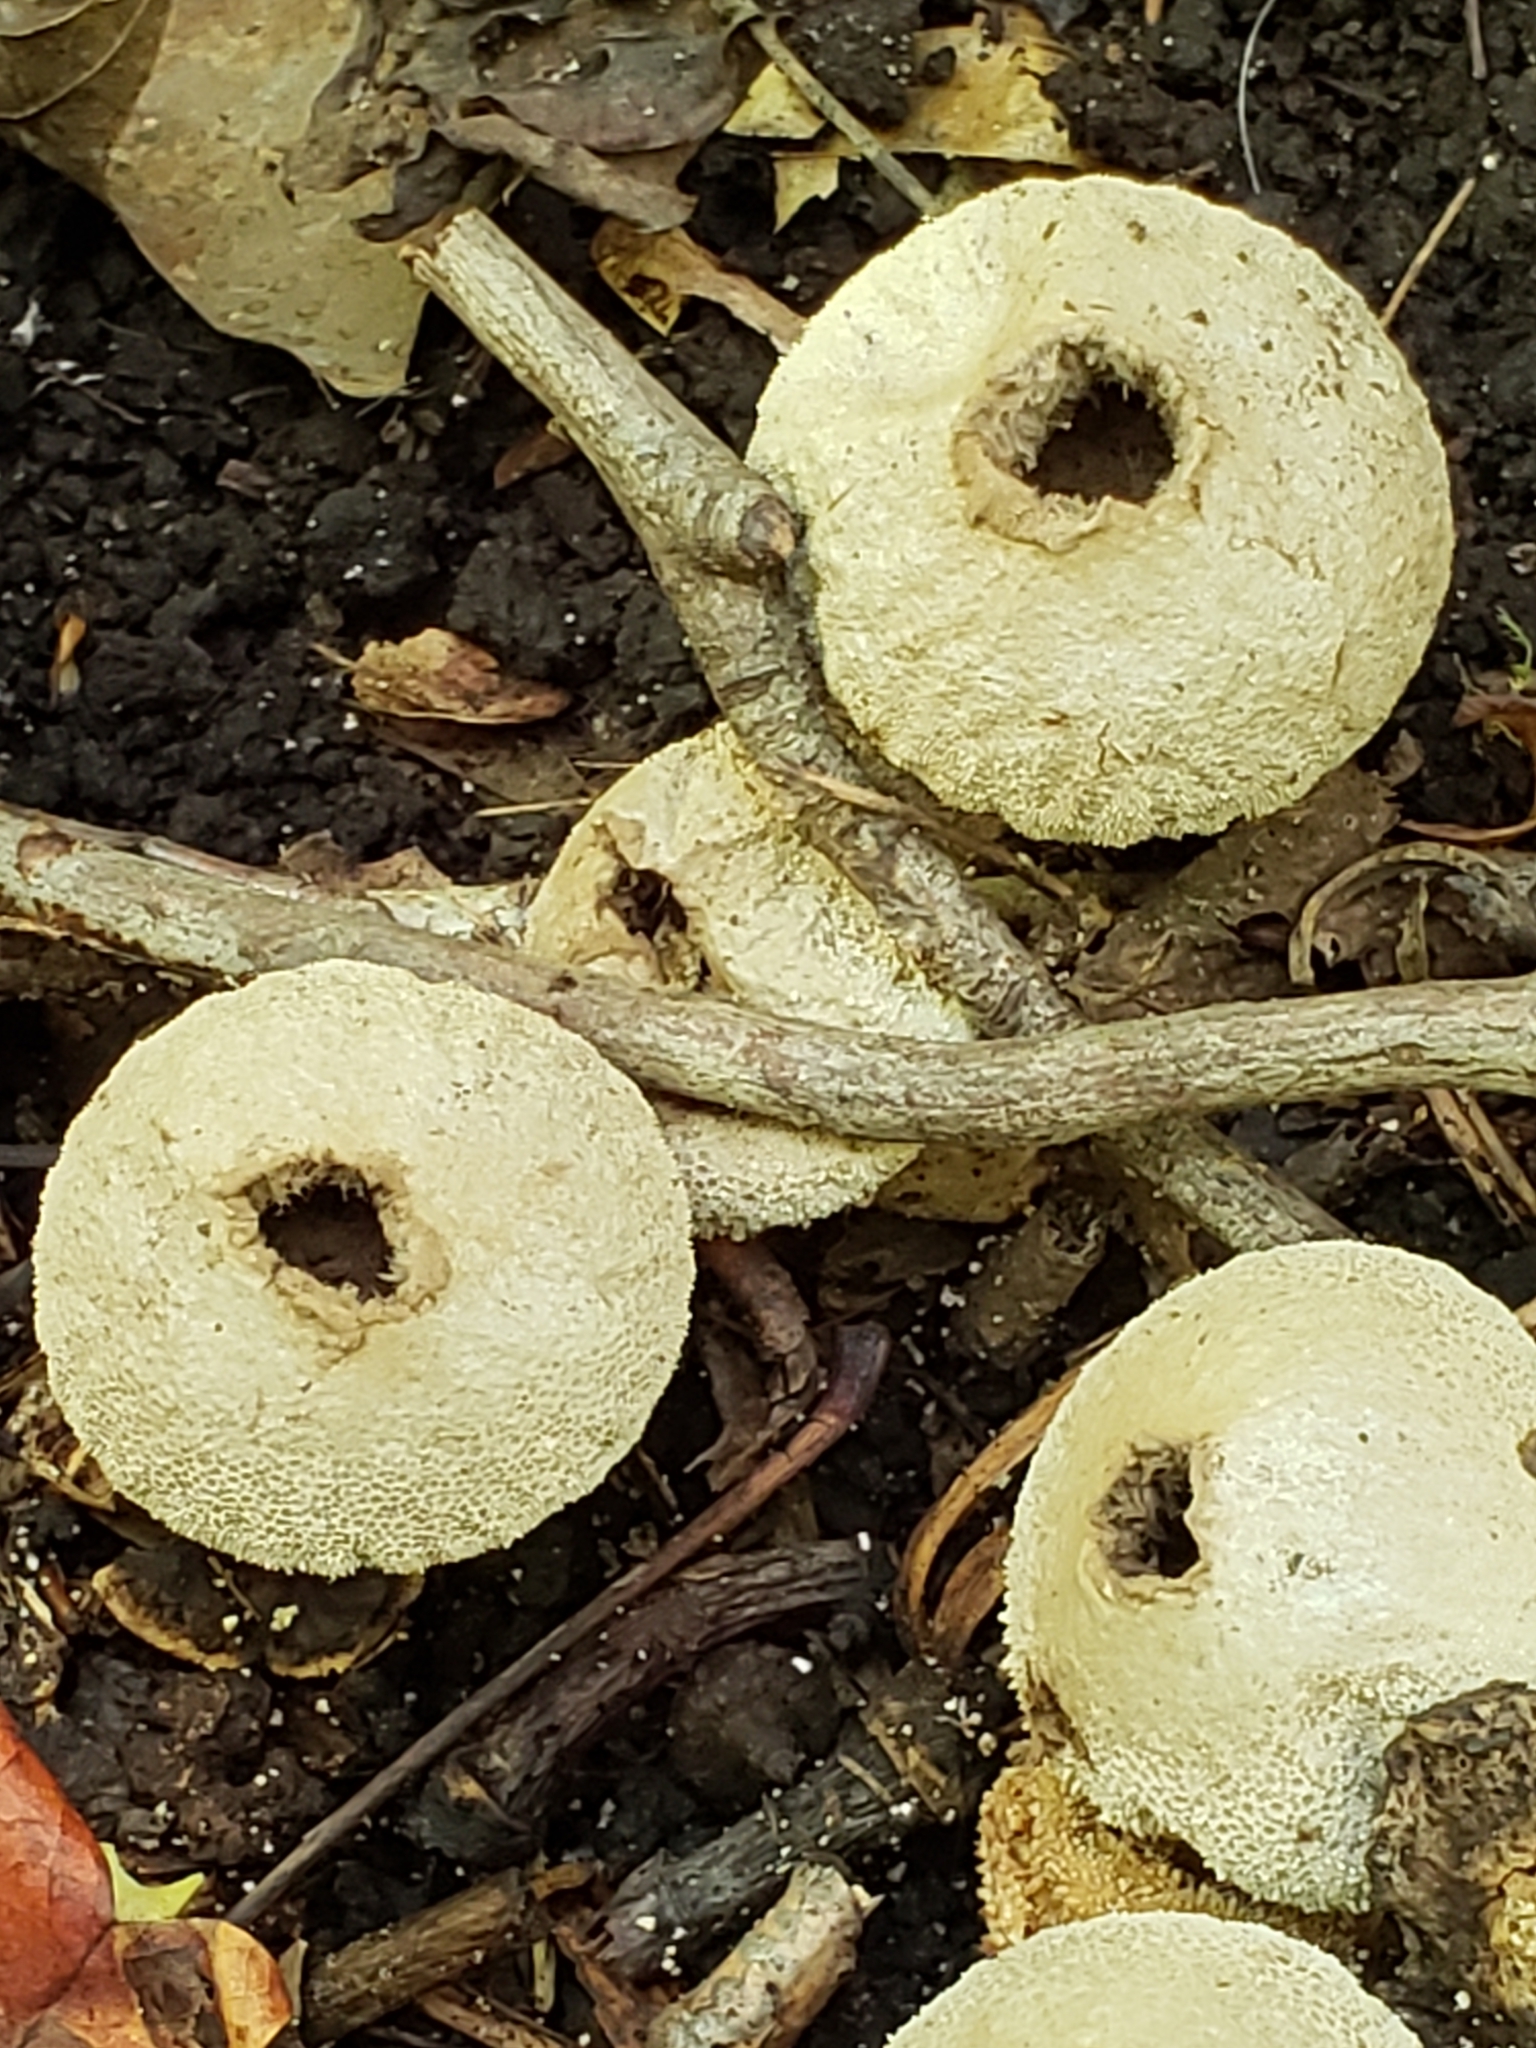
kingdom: Fungi
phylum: Basidiomycota
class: Agaricomycetes
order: Agaricales
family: Lycoperdaceae
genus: Apioperdon
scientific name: Apioperdon pyriforme
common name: Pear-shaped puffball
